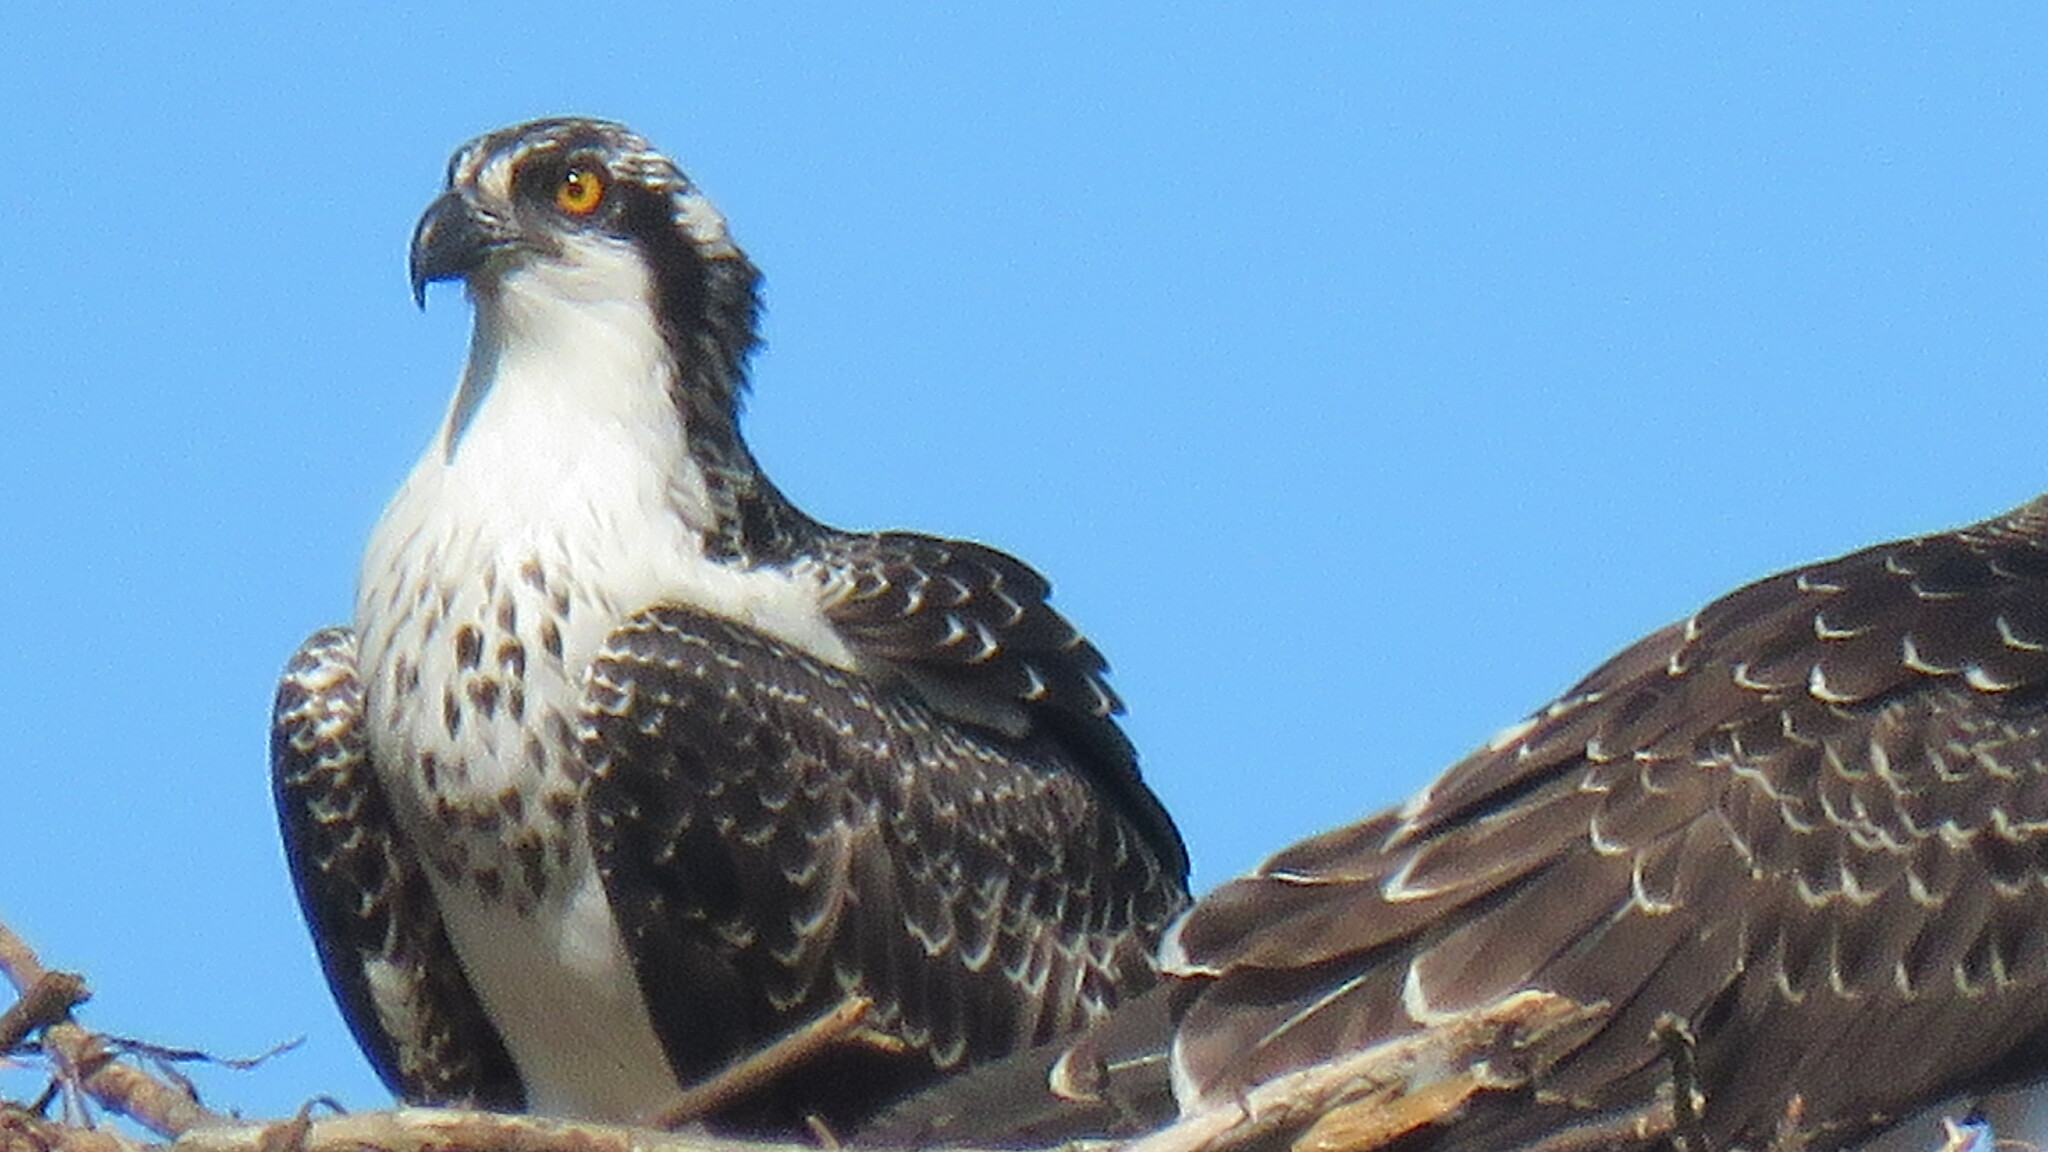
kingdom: Animalia
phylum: Chordata
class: Aves
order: Accipitriformes
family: Pandionidae
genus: Pandion
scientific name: Pandion haliaetus
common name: Osprey
